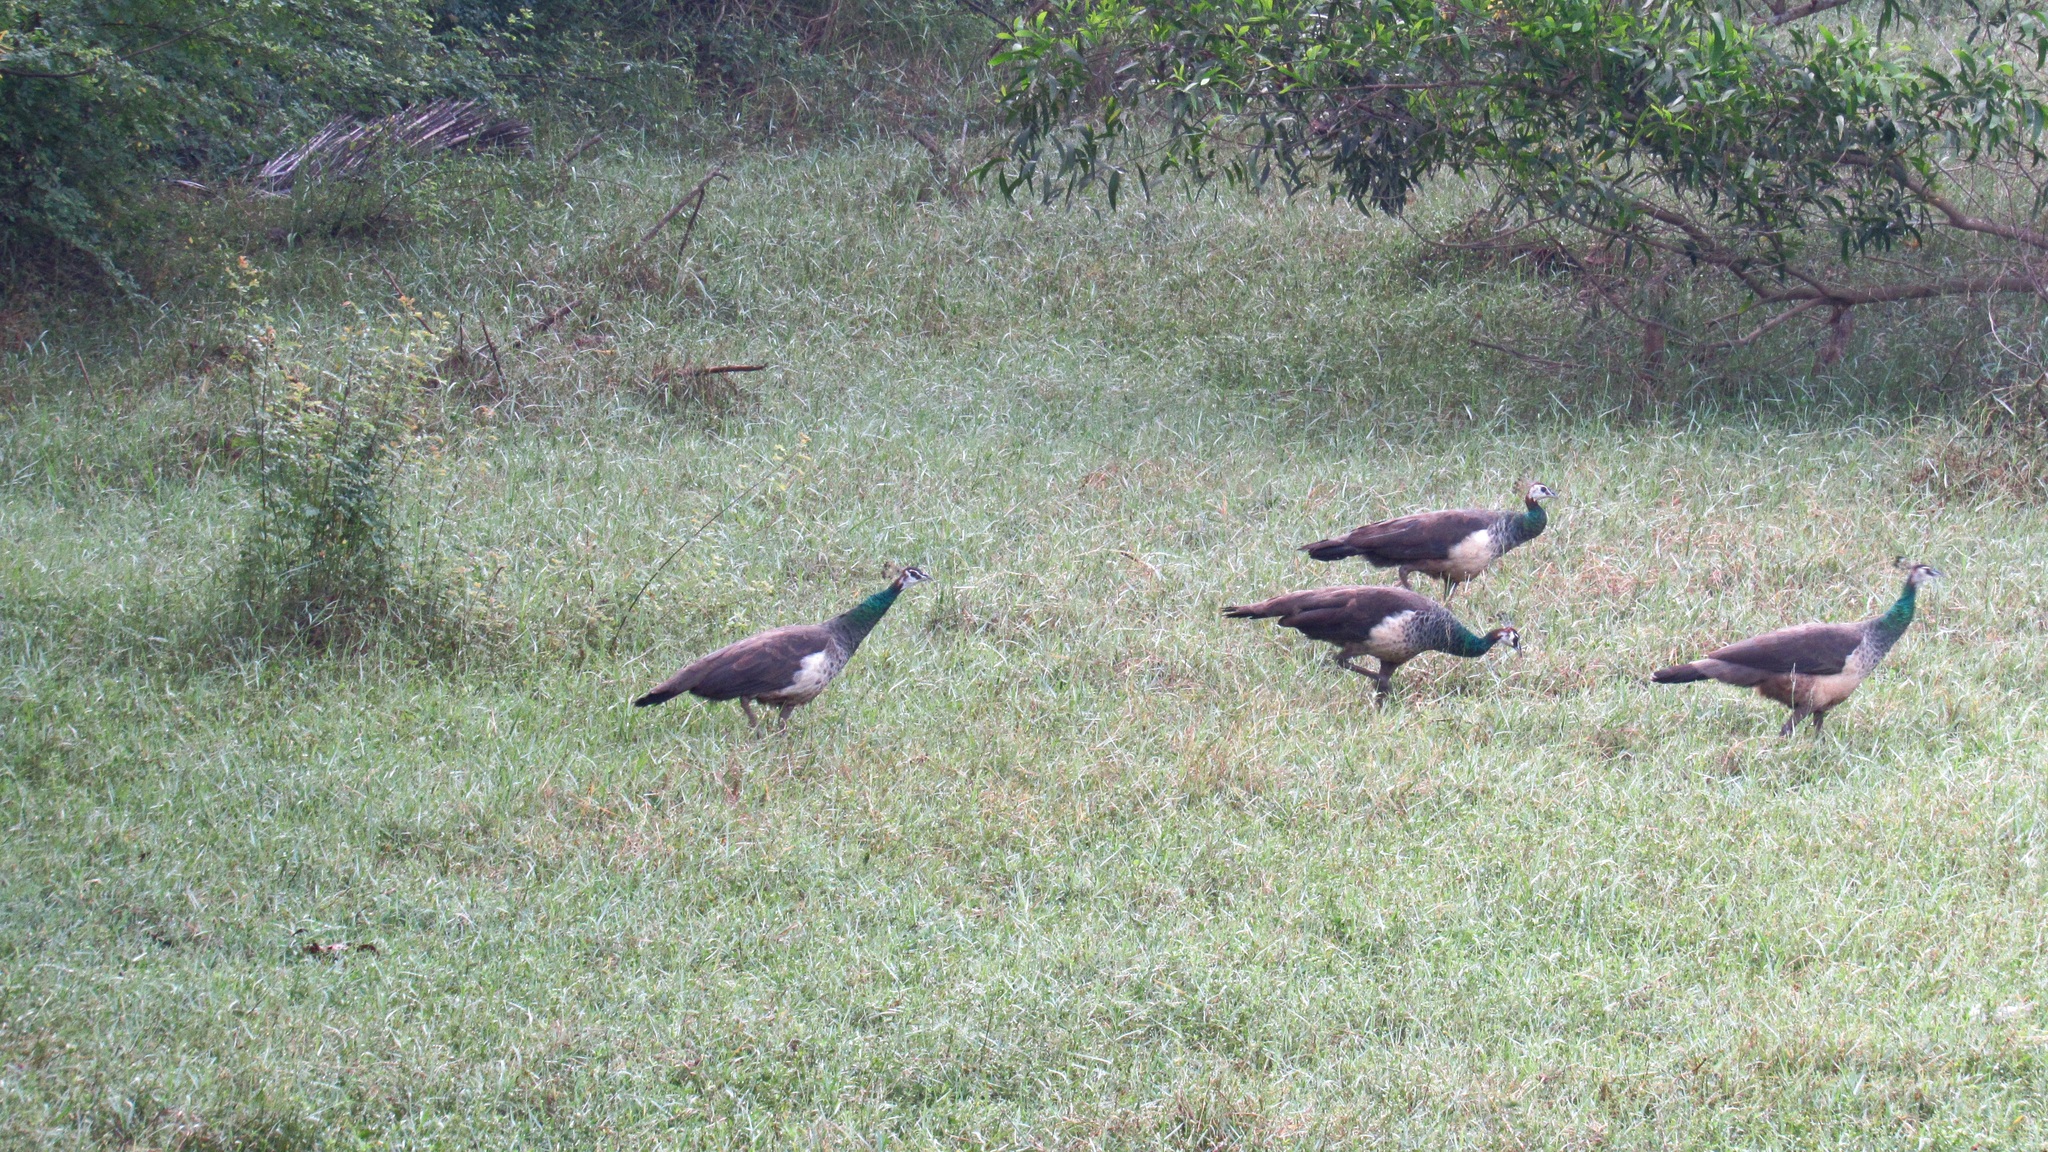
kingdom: Animalia
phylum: Chordata
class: Aves
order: Galliformes
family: Phasianidae
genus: Pavo
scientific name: Pavo cristatus
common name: Indian peafowl
